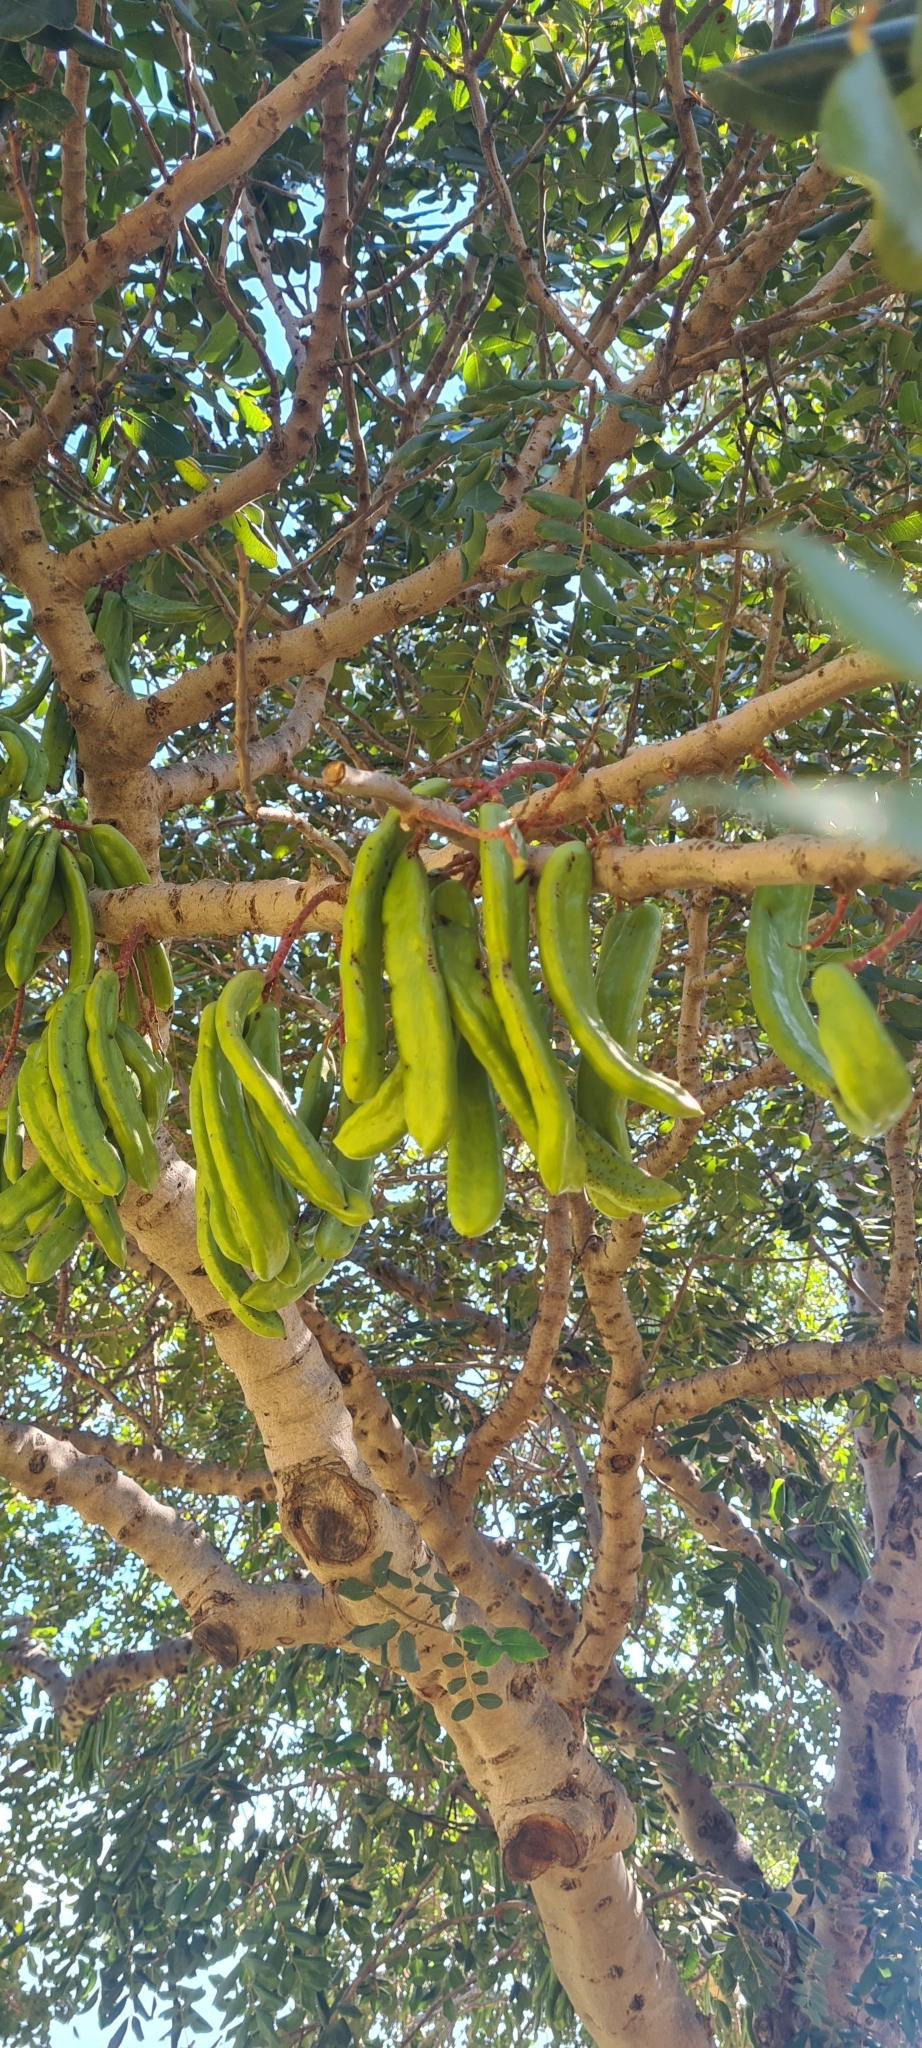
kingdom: Plantae
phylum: Tracheophyta
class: Magnoliopsida
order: Fabales
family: Fabaceae
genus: Ceratonia
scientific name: Ceratonia siliqua
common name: Carob
